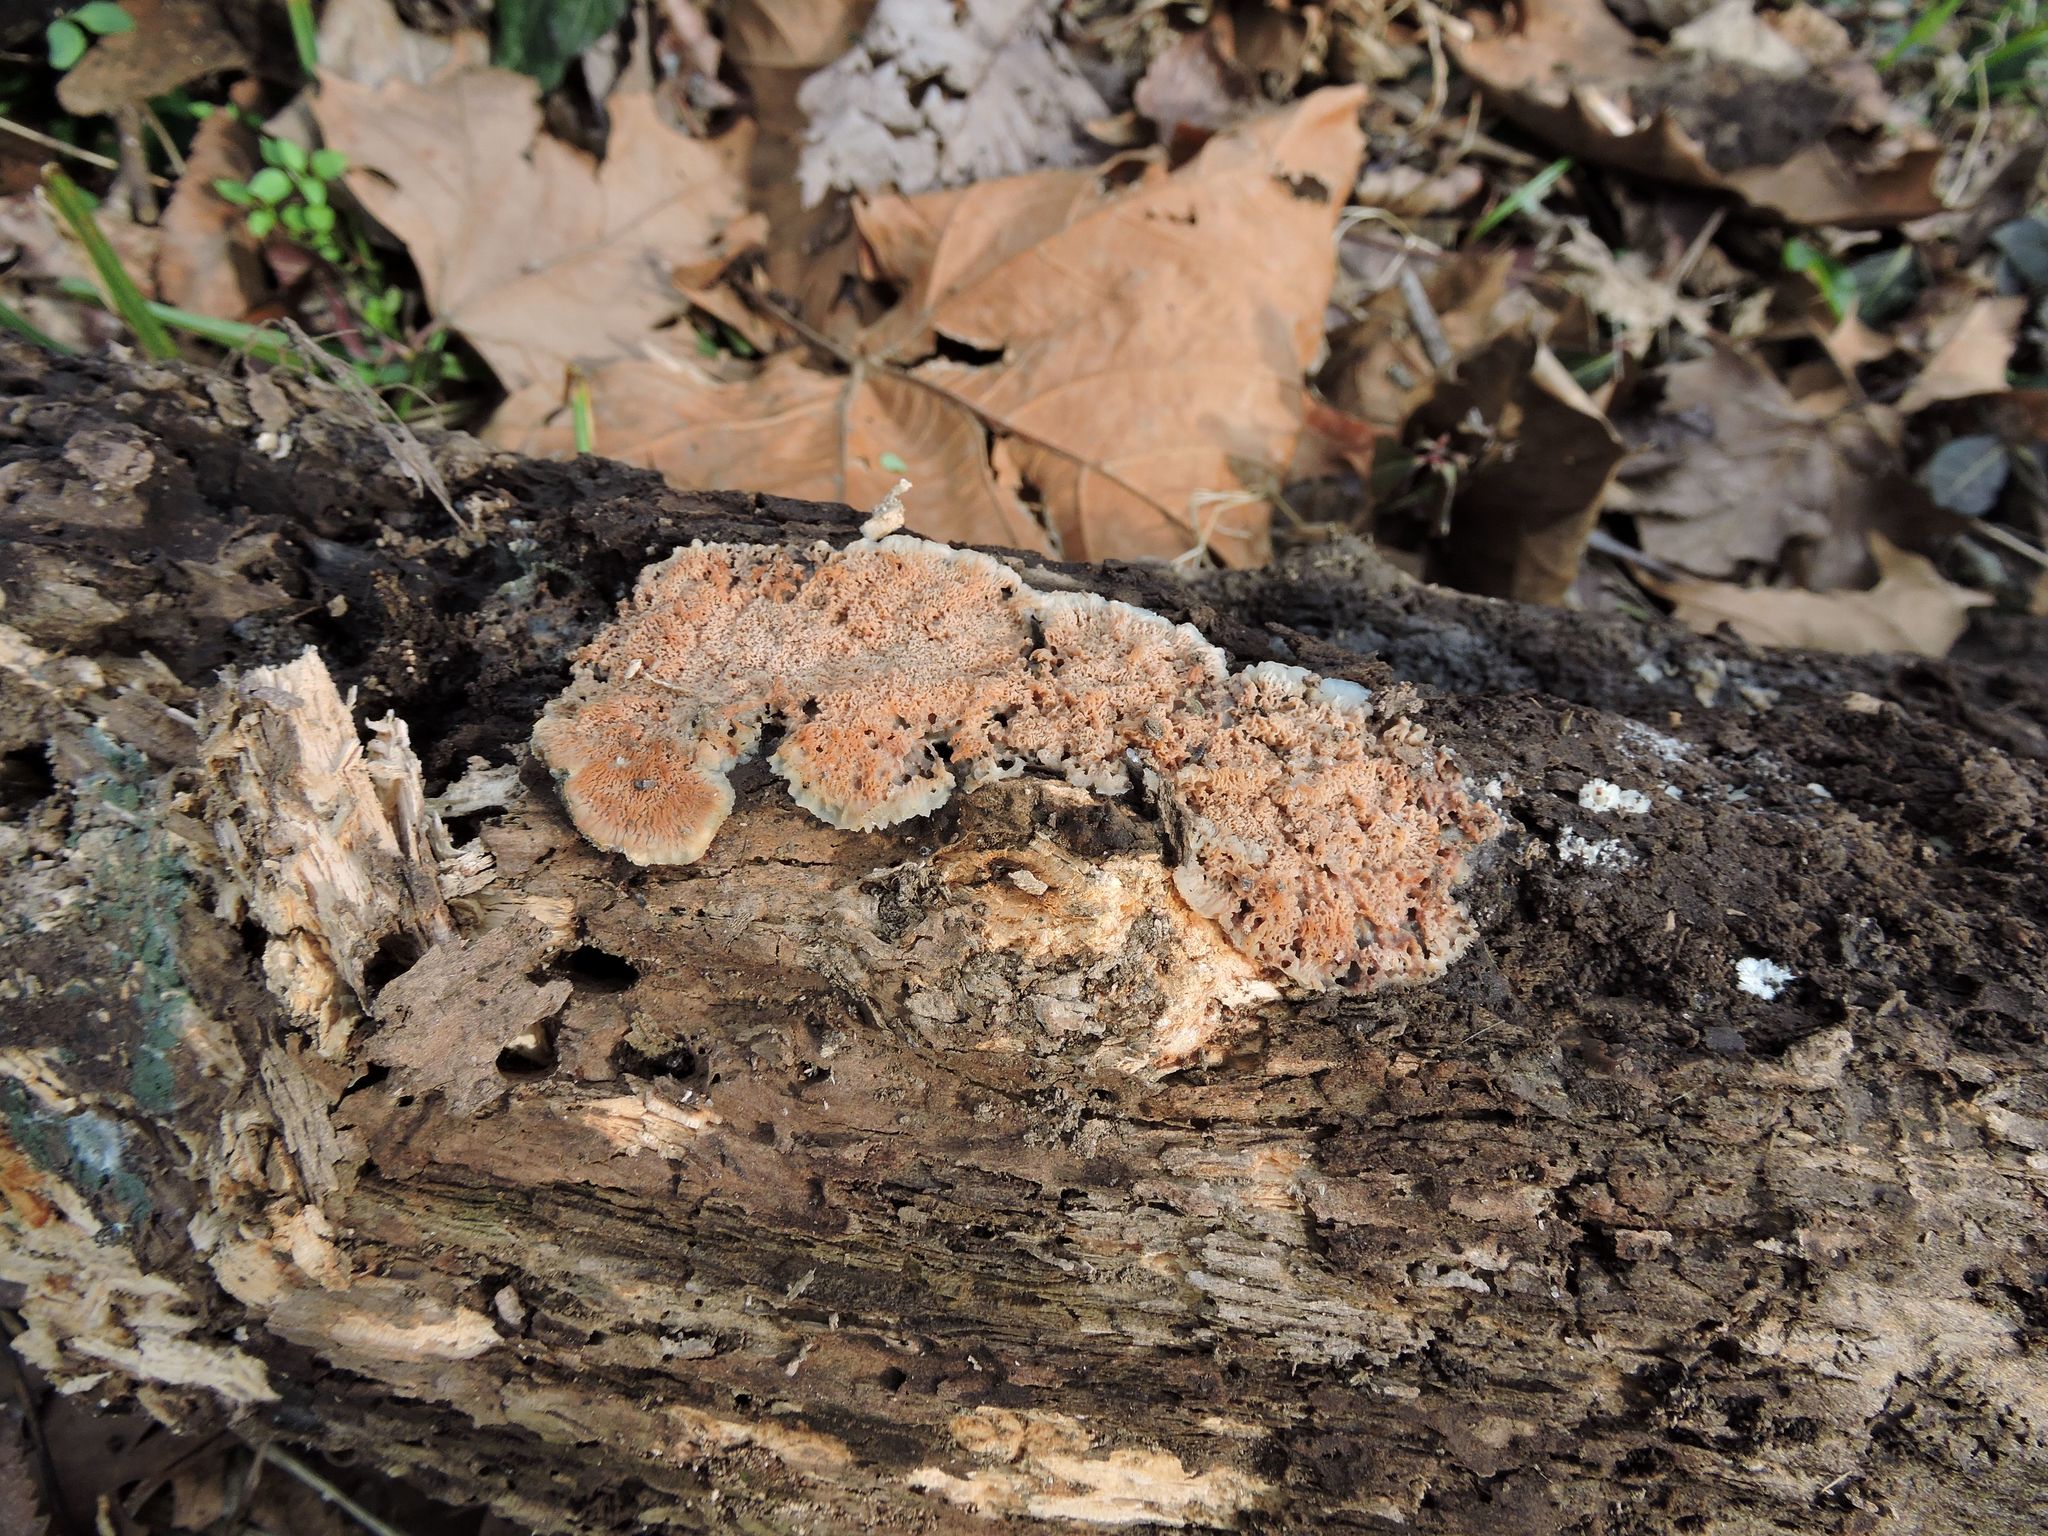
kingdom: Fungi
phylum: Basidiomycota
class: Agaricomycetes
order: Polyporales
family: Meruliaceae
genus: Phlebia
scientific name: Phlebia tremellosa
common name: Jelly rot
